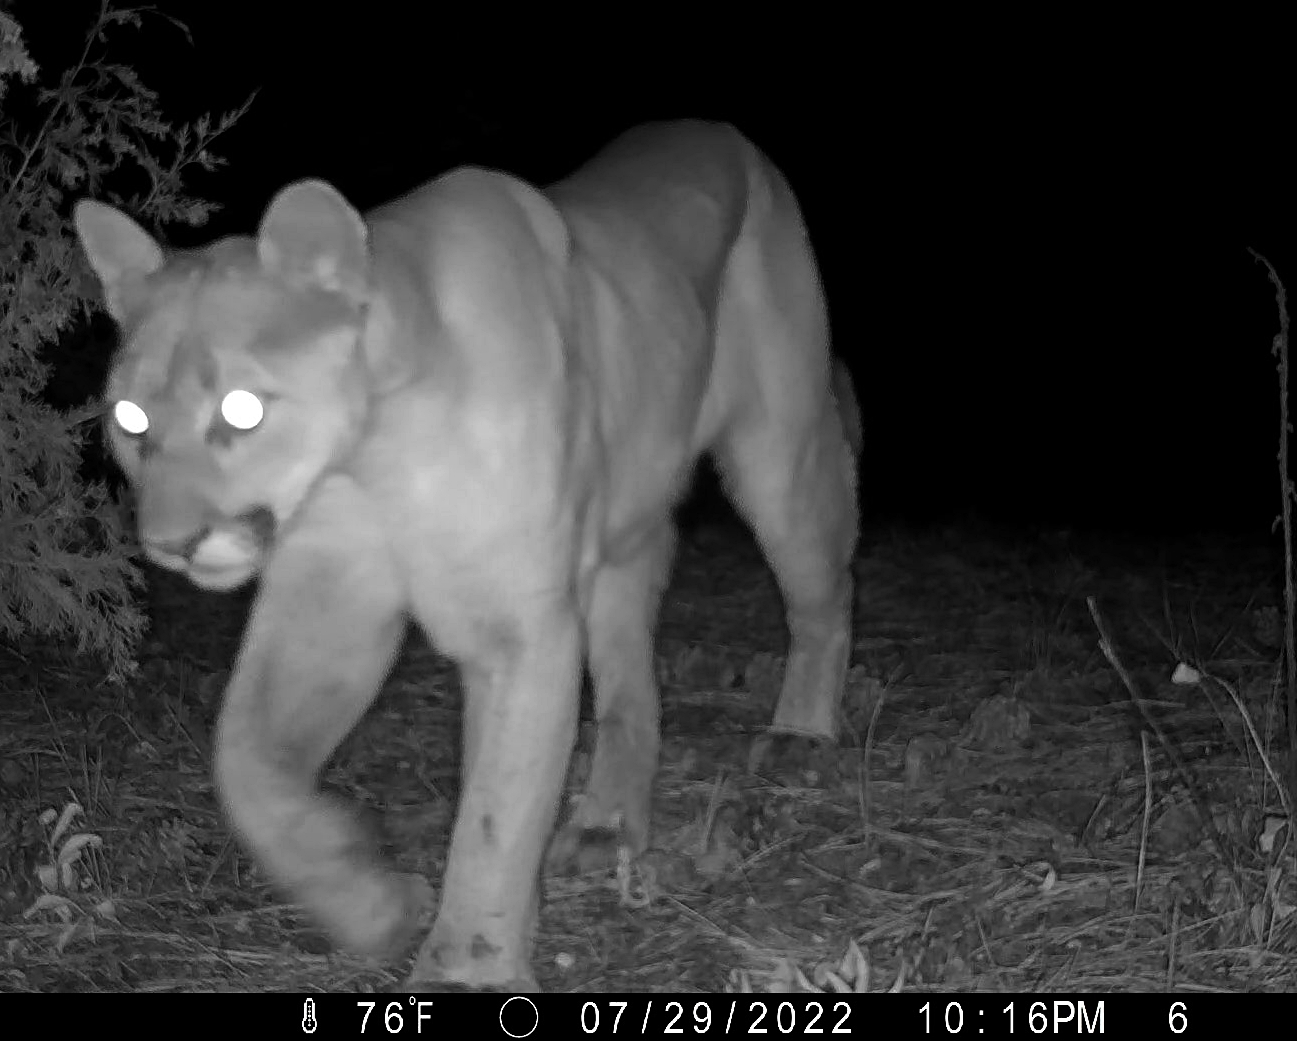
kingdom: Animalia
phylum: Chordata
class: Mammalia
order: Carnivora
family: Felidae
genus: Puma
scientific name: Puma concolor
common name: Puma
